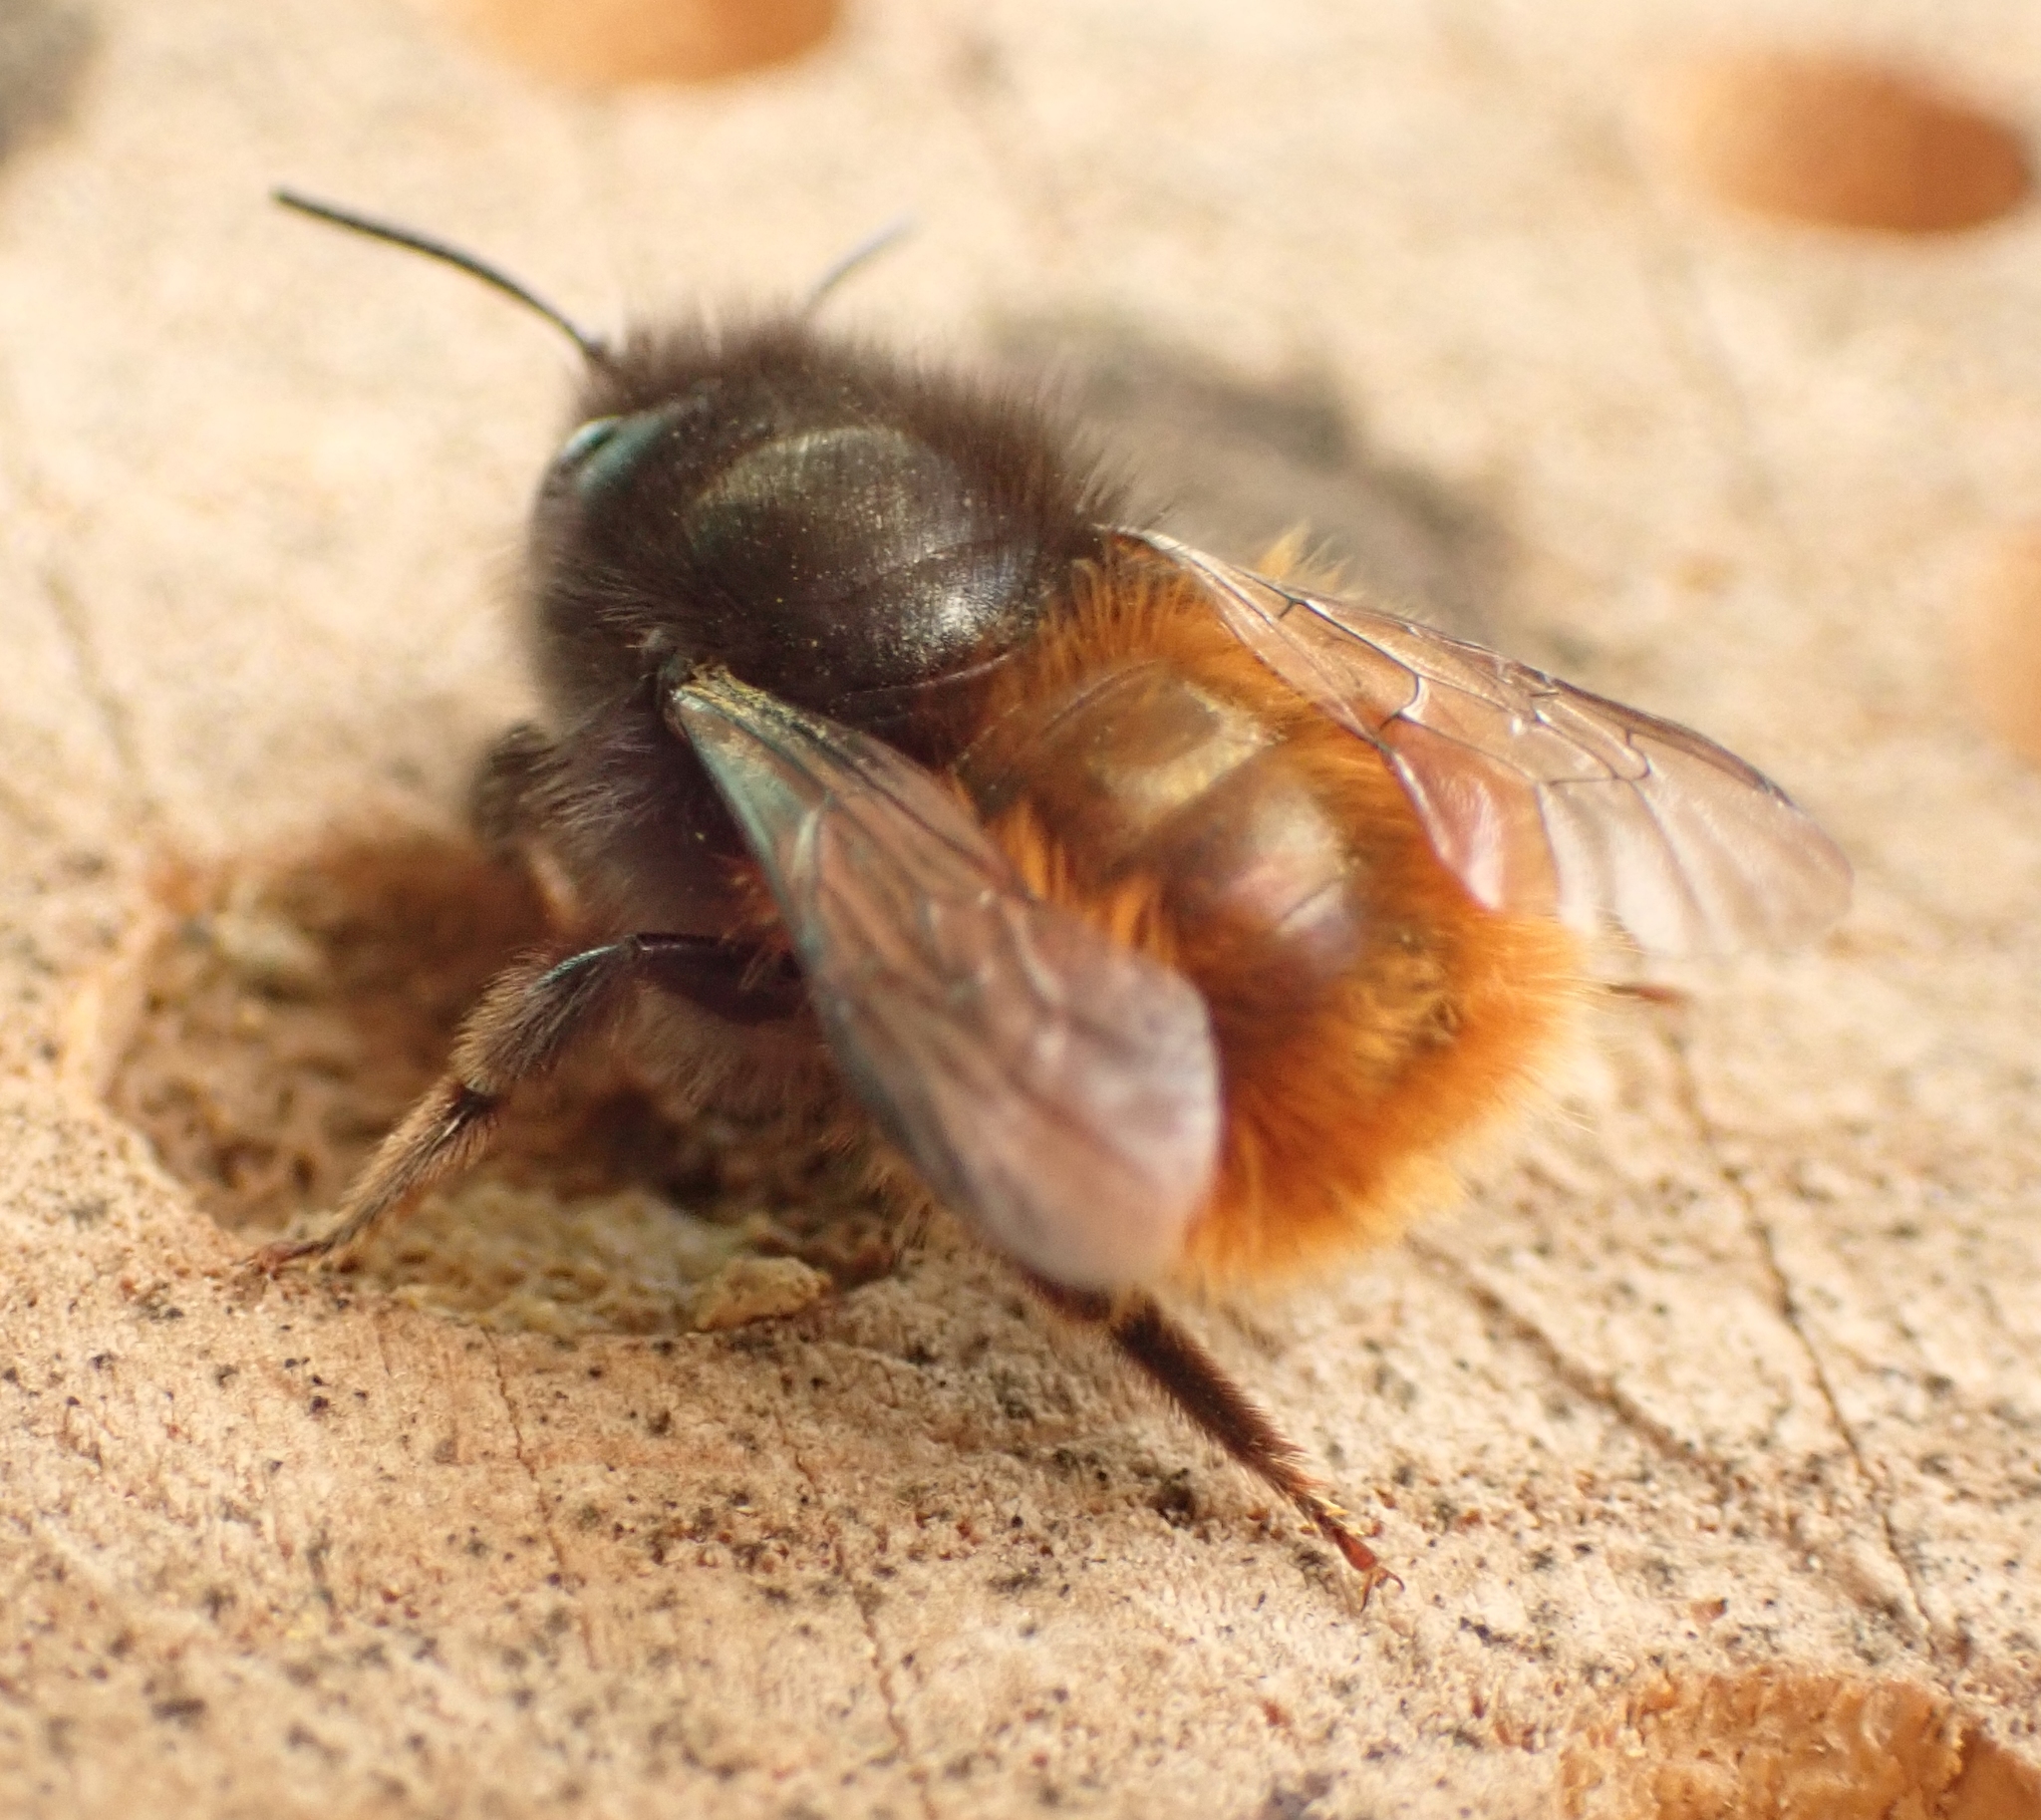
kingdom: Animalia
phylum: Arthropoda
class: Insecta
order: Hymenoptera
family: Megachilidae
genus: Osmia
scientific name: Osmia cornuta
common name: Mason bee
